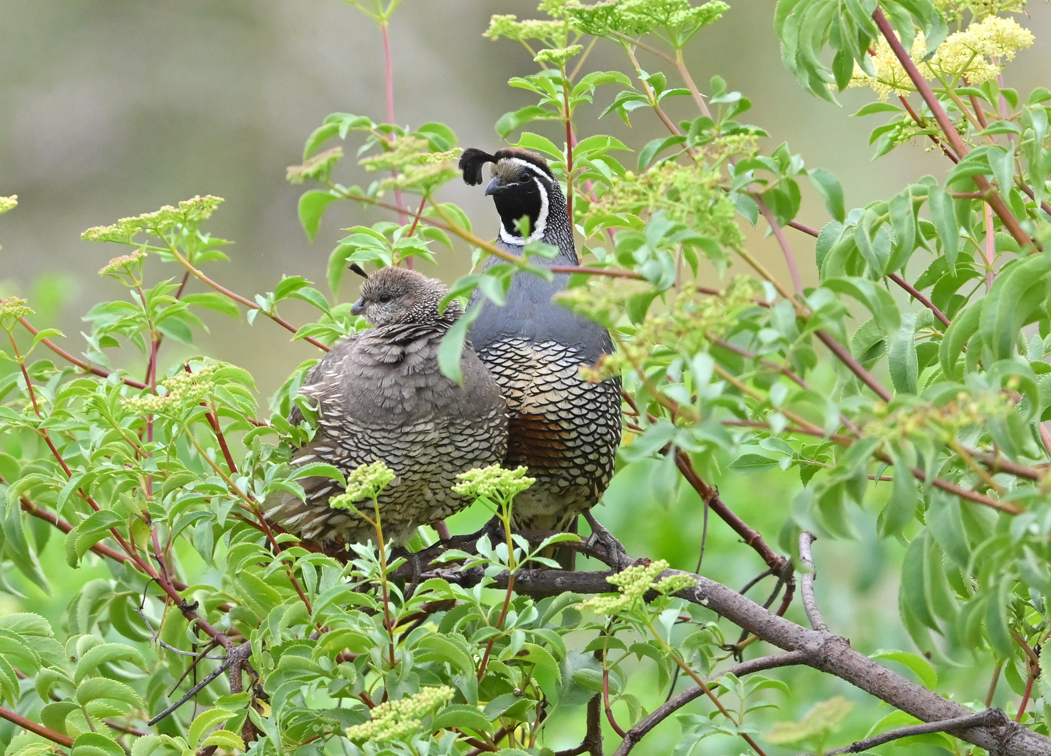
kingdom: Animalia
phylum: Chordata
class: Aves
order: Galliformes
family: Odontophoridae
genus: Callipepla
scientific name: Callipepla californica
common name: California quail
